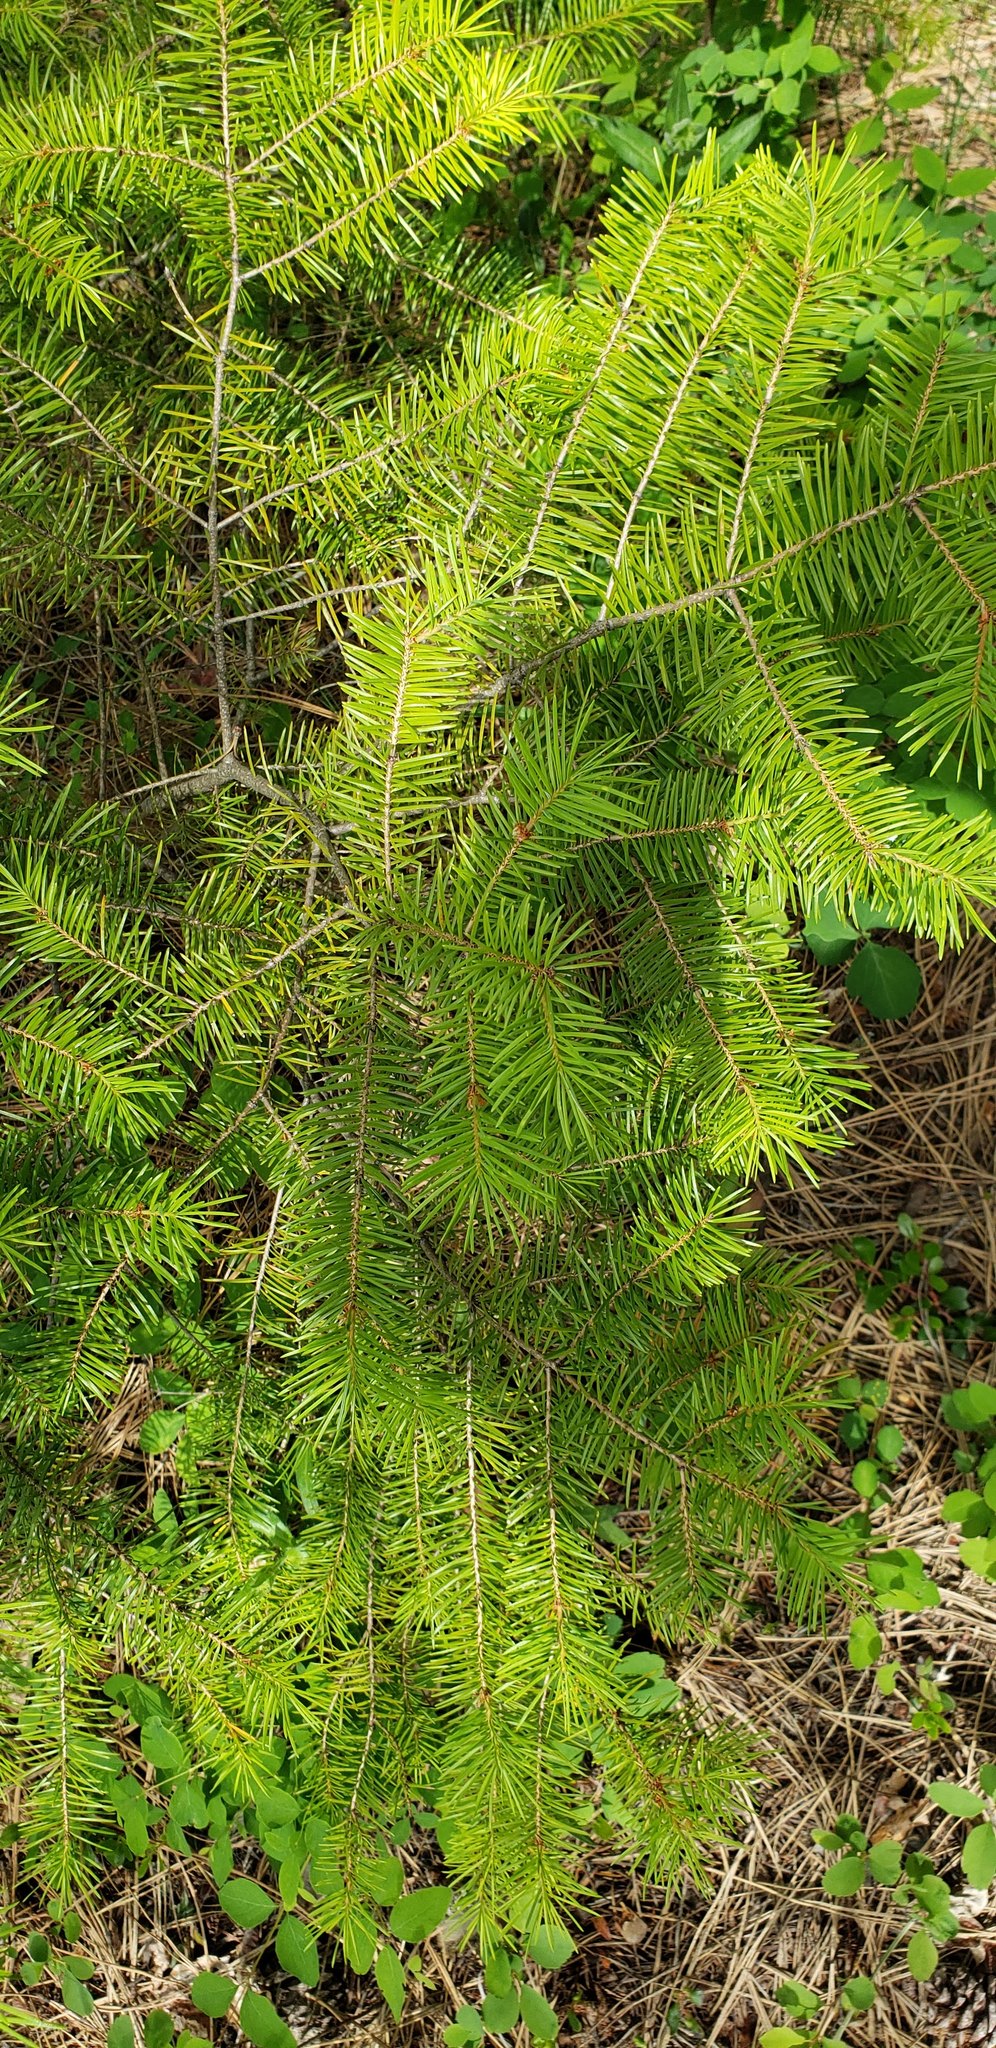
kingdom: Plantae
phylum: Tracheophyta
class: Pinopsida
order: Pinales
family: Pinaceae
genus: Pseudotsuga
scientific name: Pseudotsuga menziesii
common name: Douglas fir
